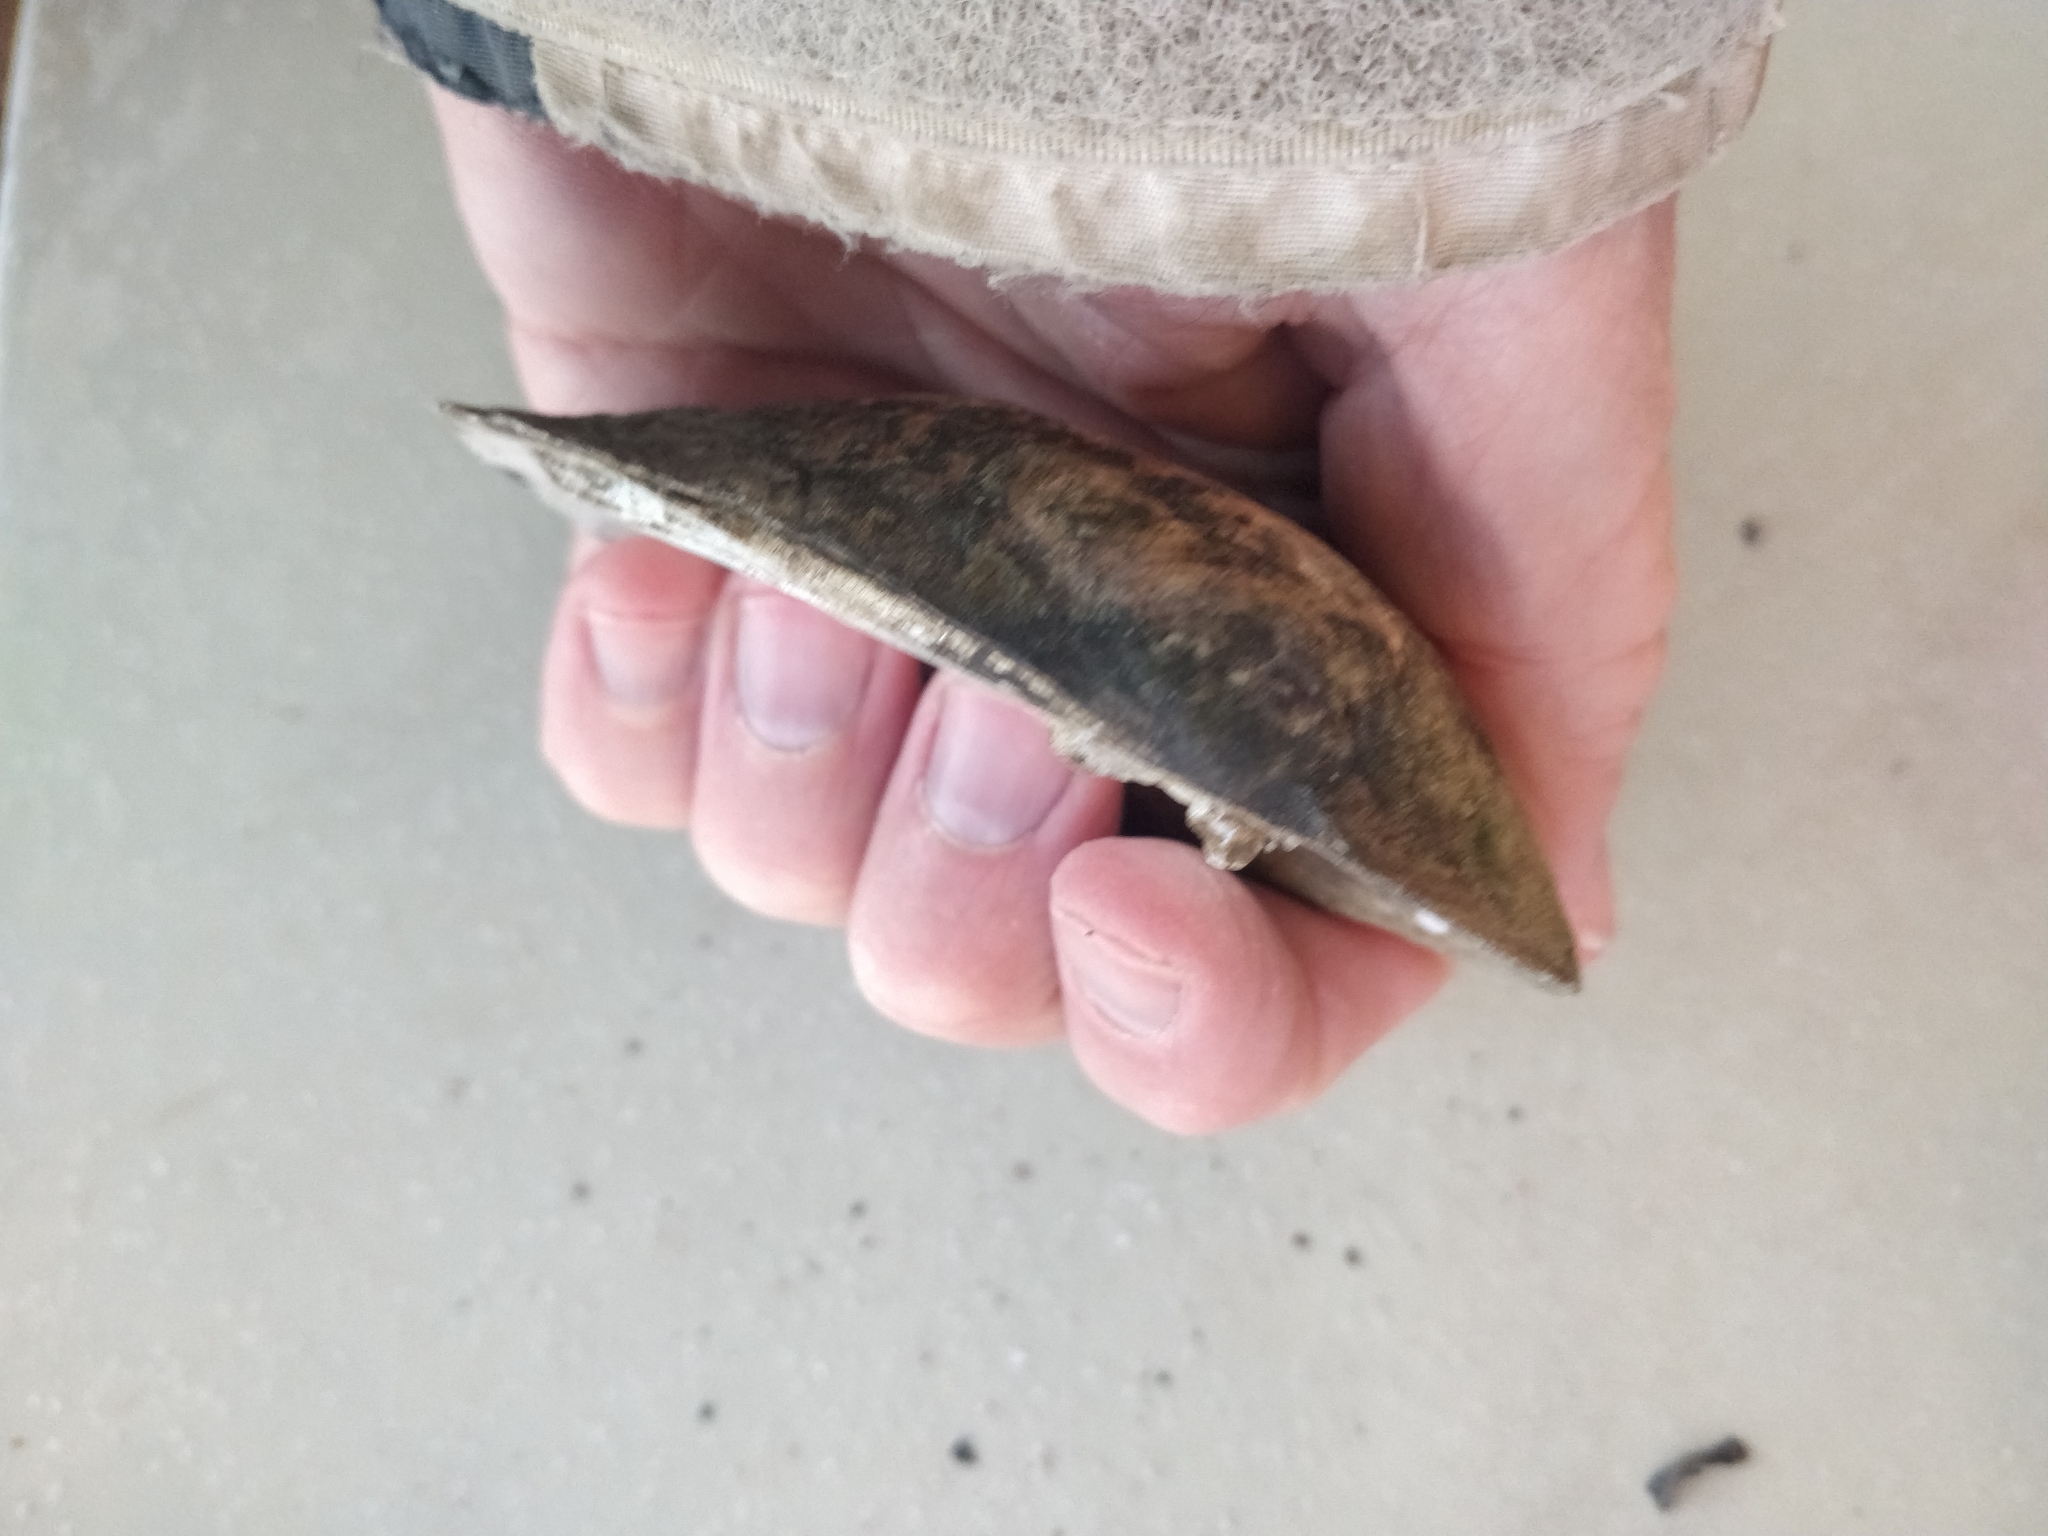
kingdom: Animalia
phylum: Mollusca
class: Bivalvia
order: Unionida
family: Unionidae
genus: Amblema
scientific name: Amblema plicata
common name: Threeridge
